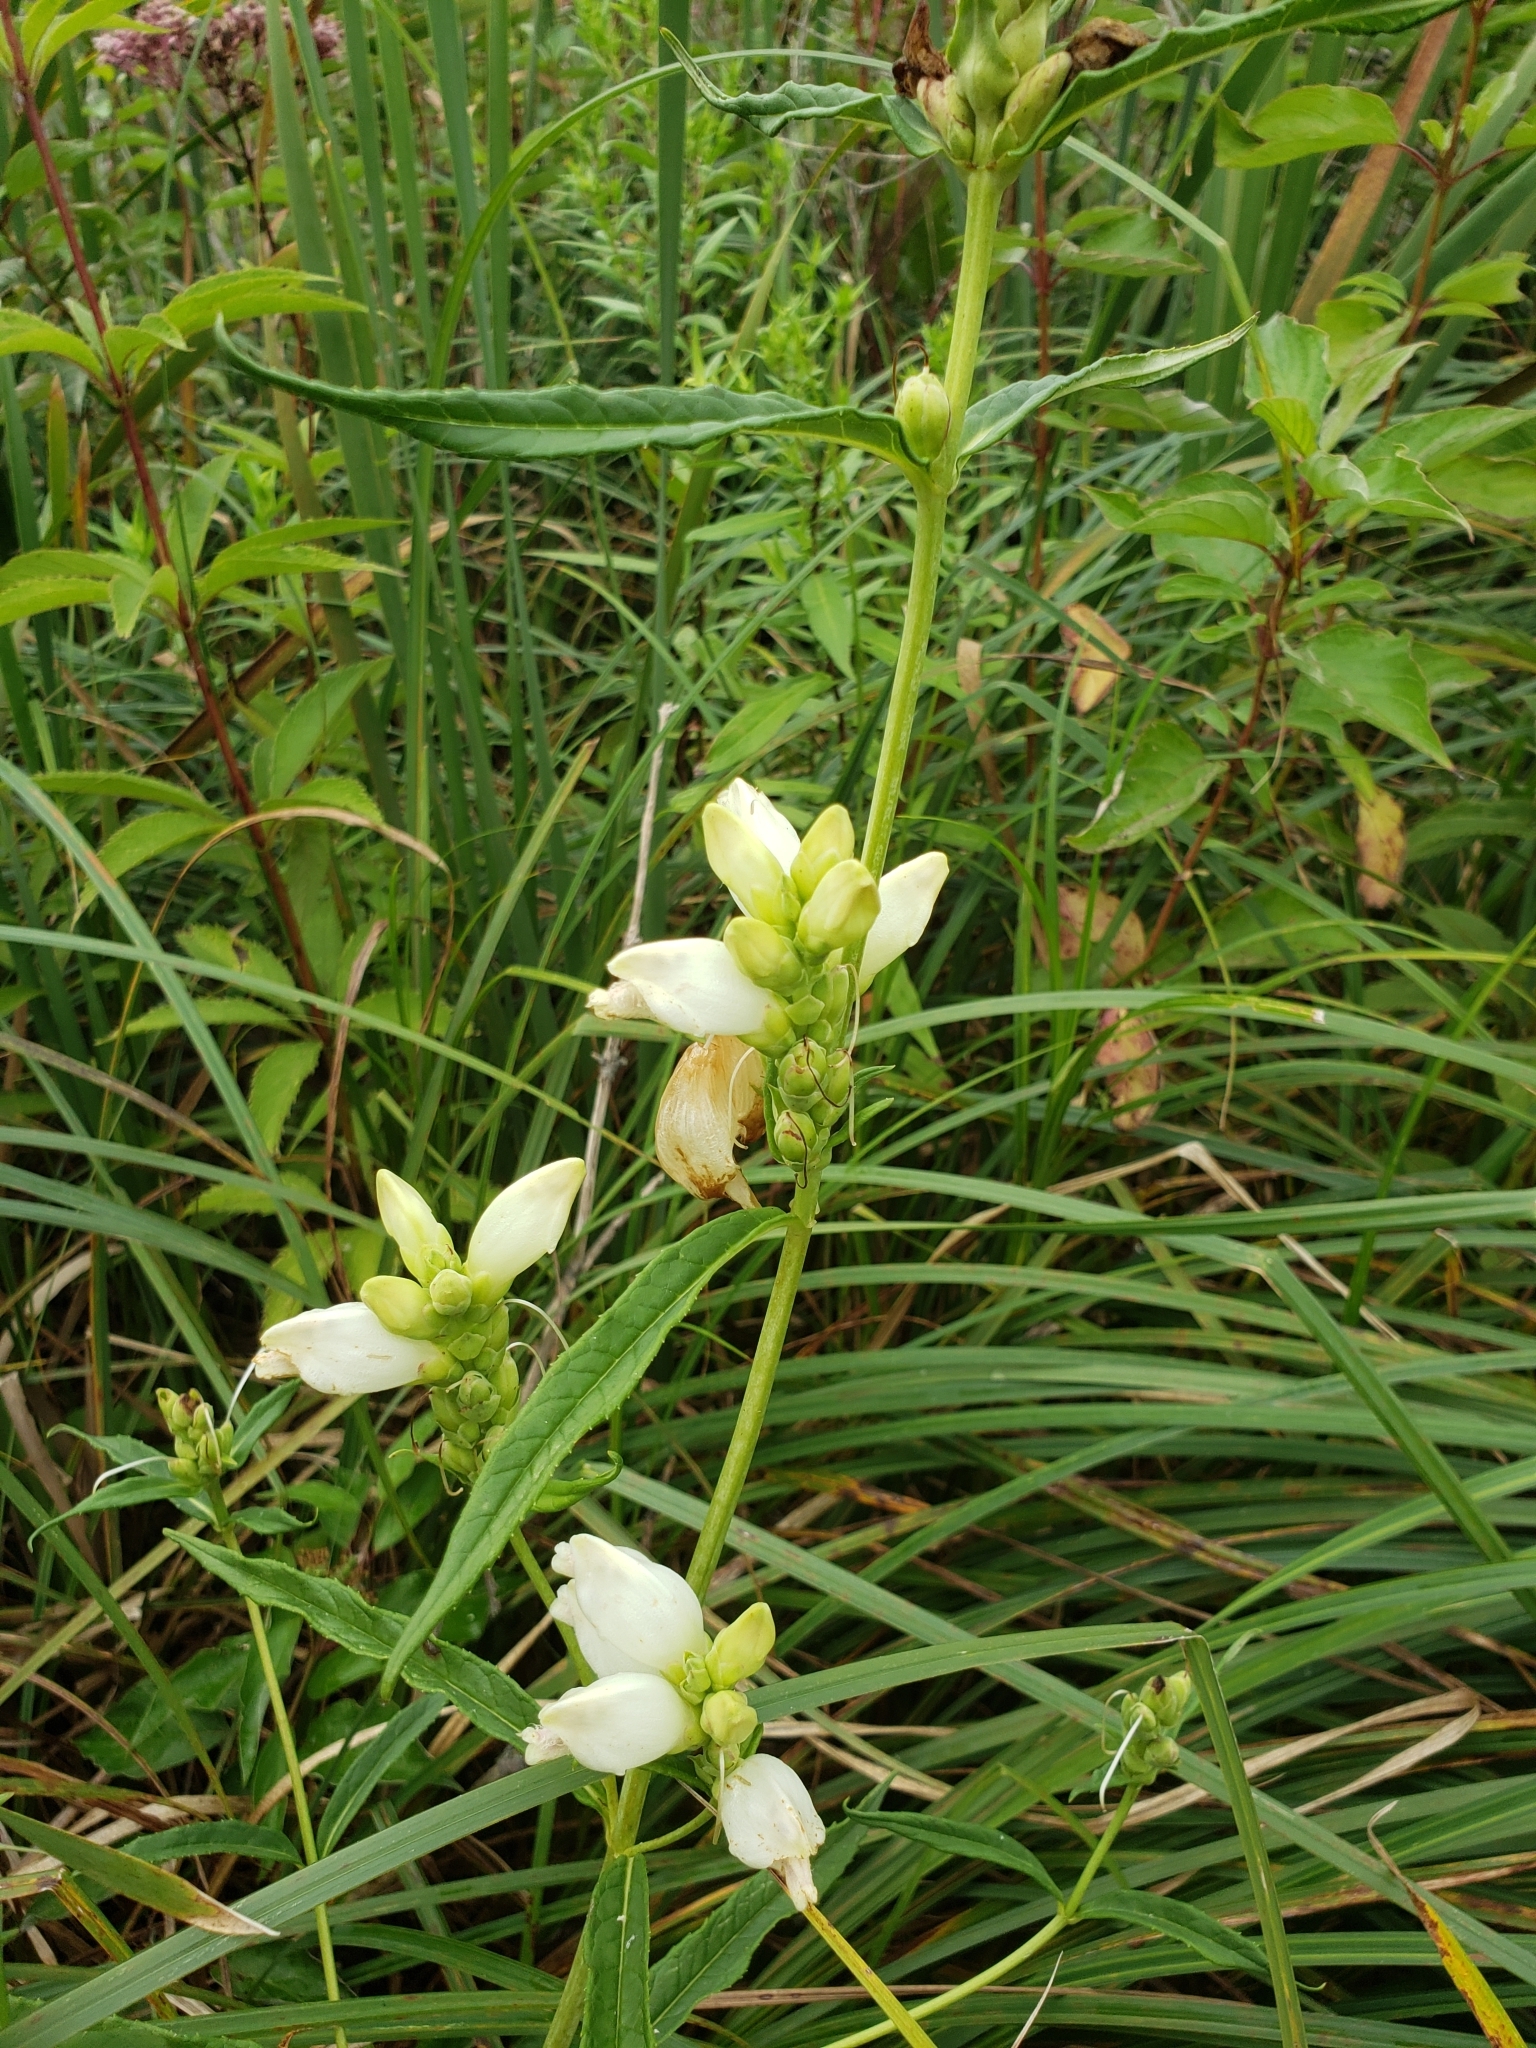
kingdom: Plantae
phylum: Tracheophyta
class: Magnoliopsida
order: Lamiales
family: Plantaginaceae
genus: Chelone
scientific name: Chelone glabra
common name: Snakehead
